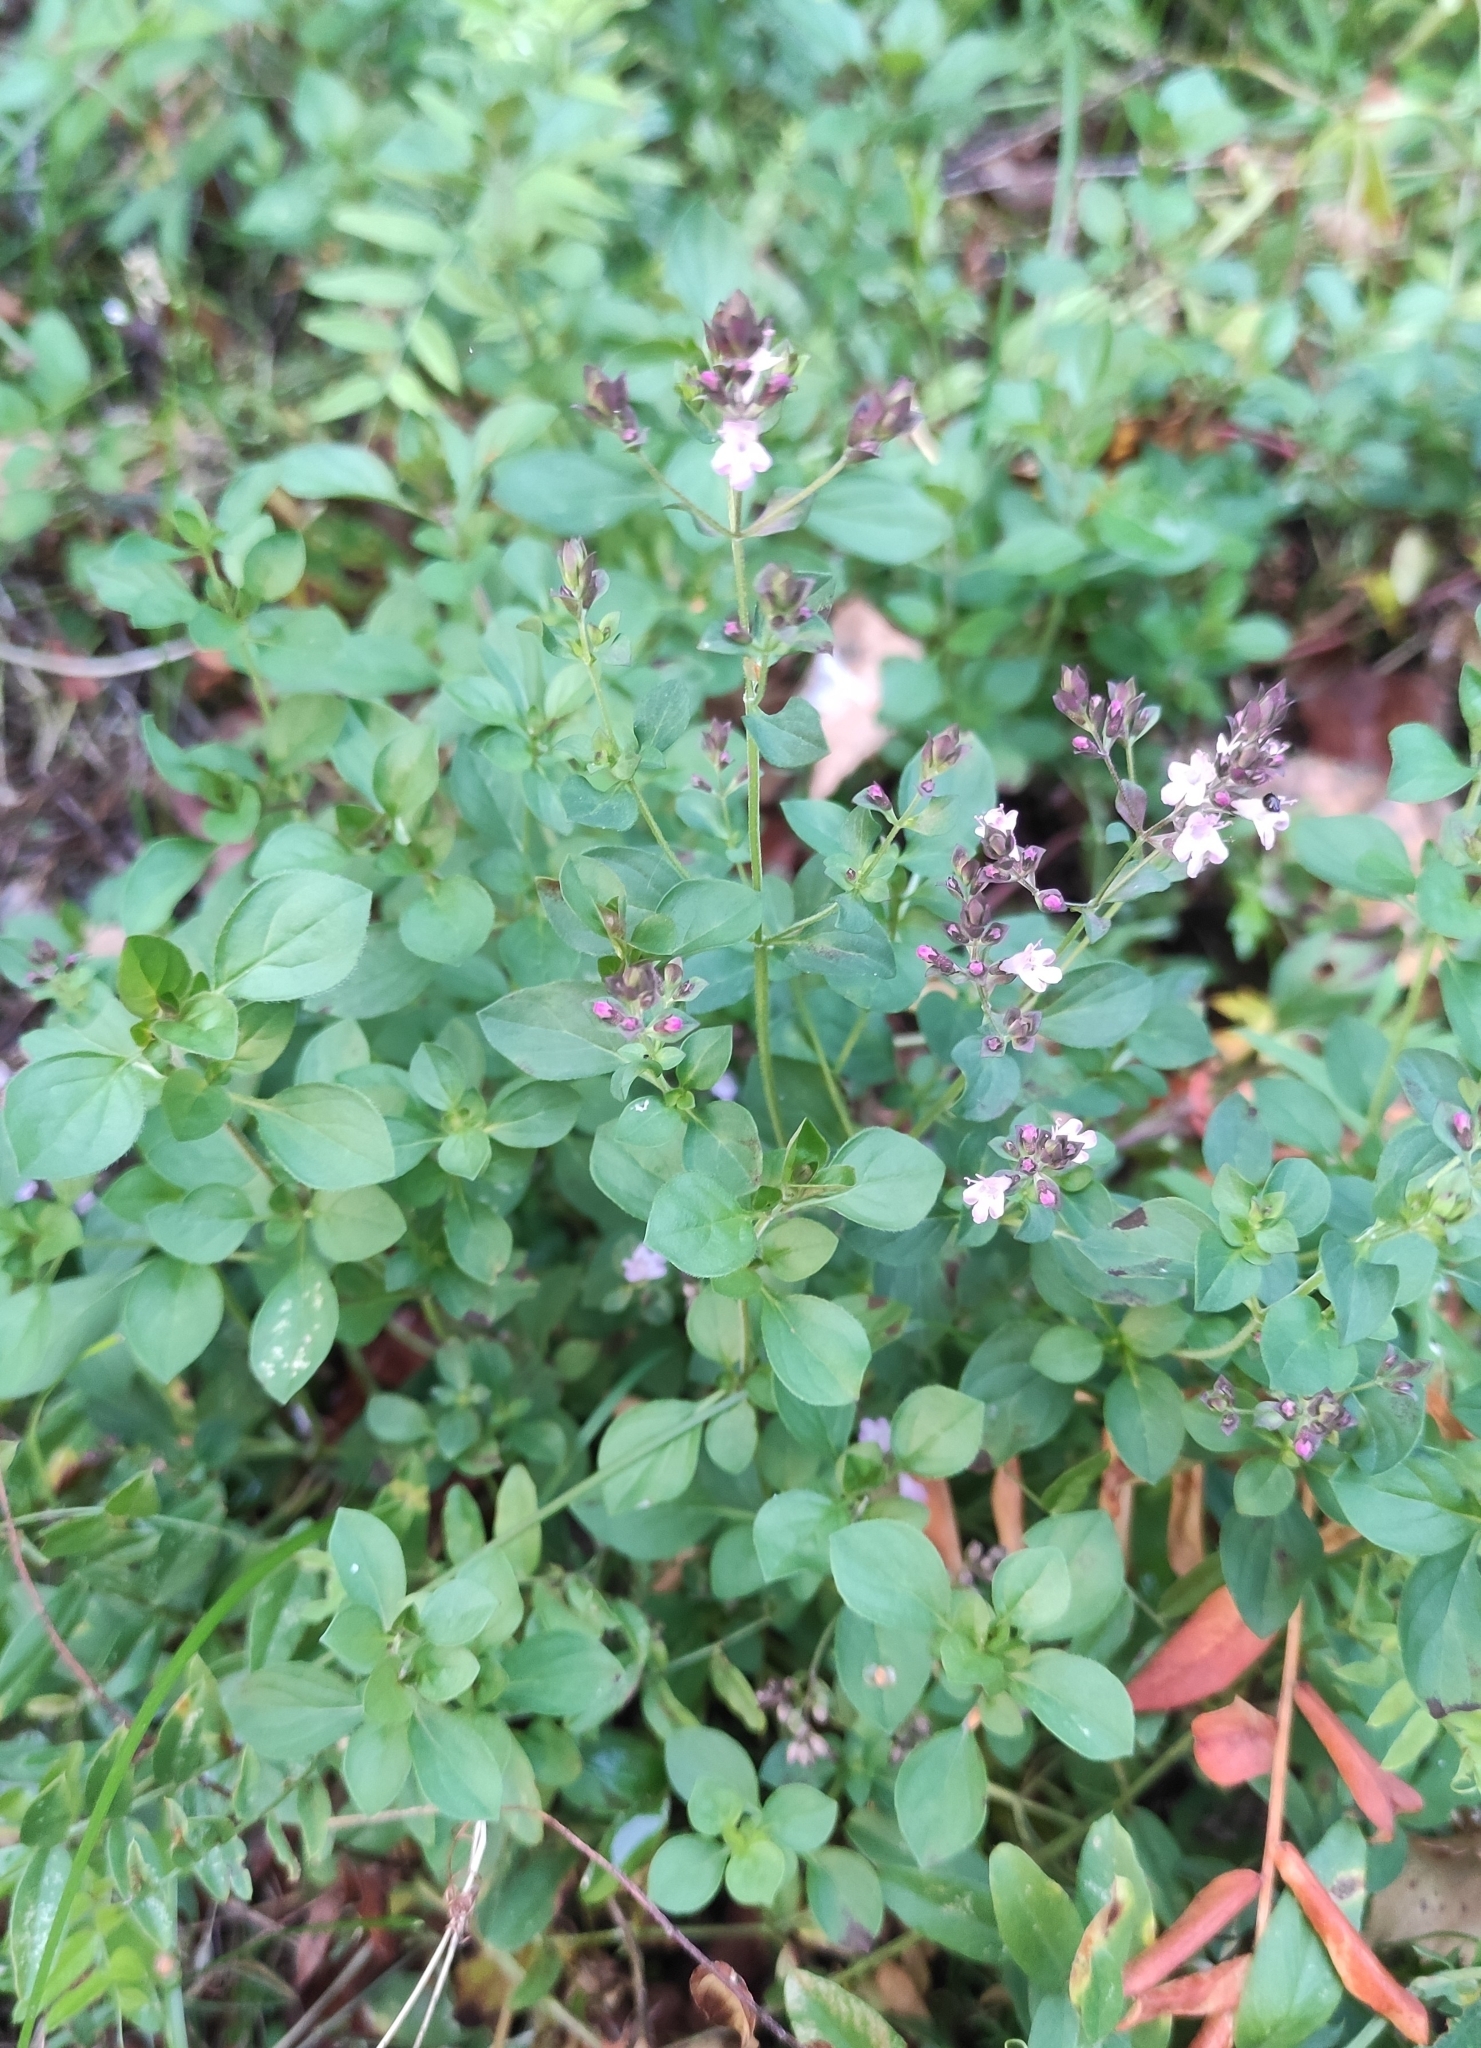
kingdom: Plantae
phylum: Tracheophyta
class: Magnoliopsida
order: Lamiales
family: Lamiaceae
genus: Origanum
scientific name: Origanum vulgare
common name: Wild marjoram
